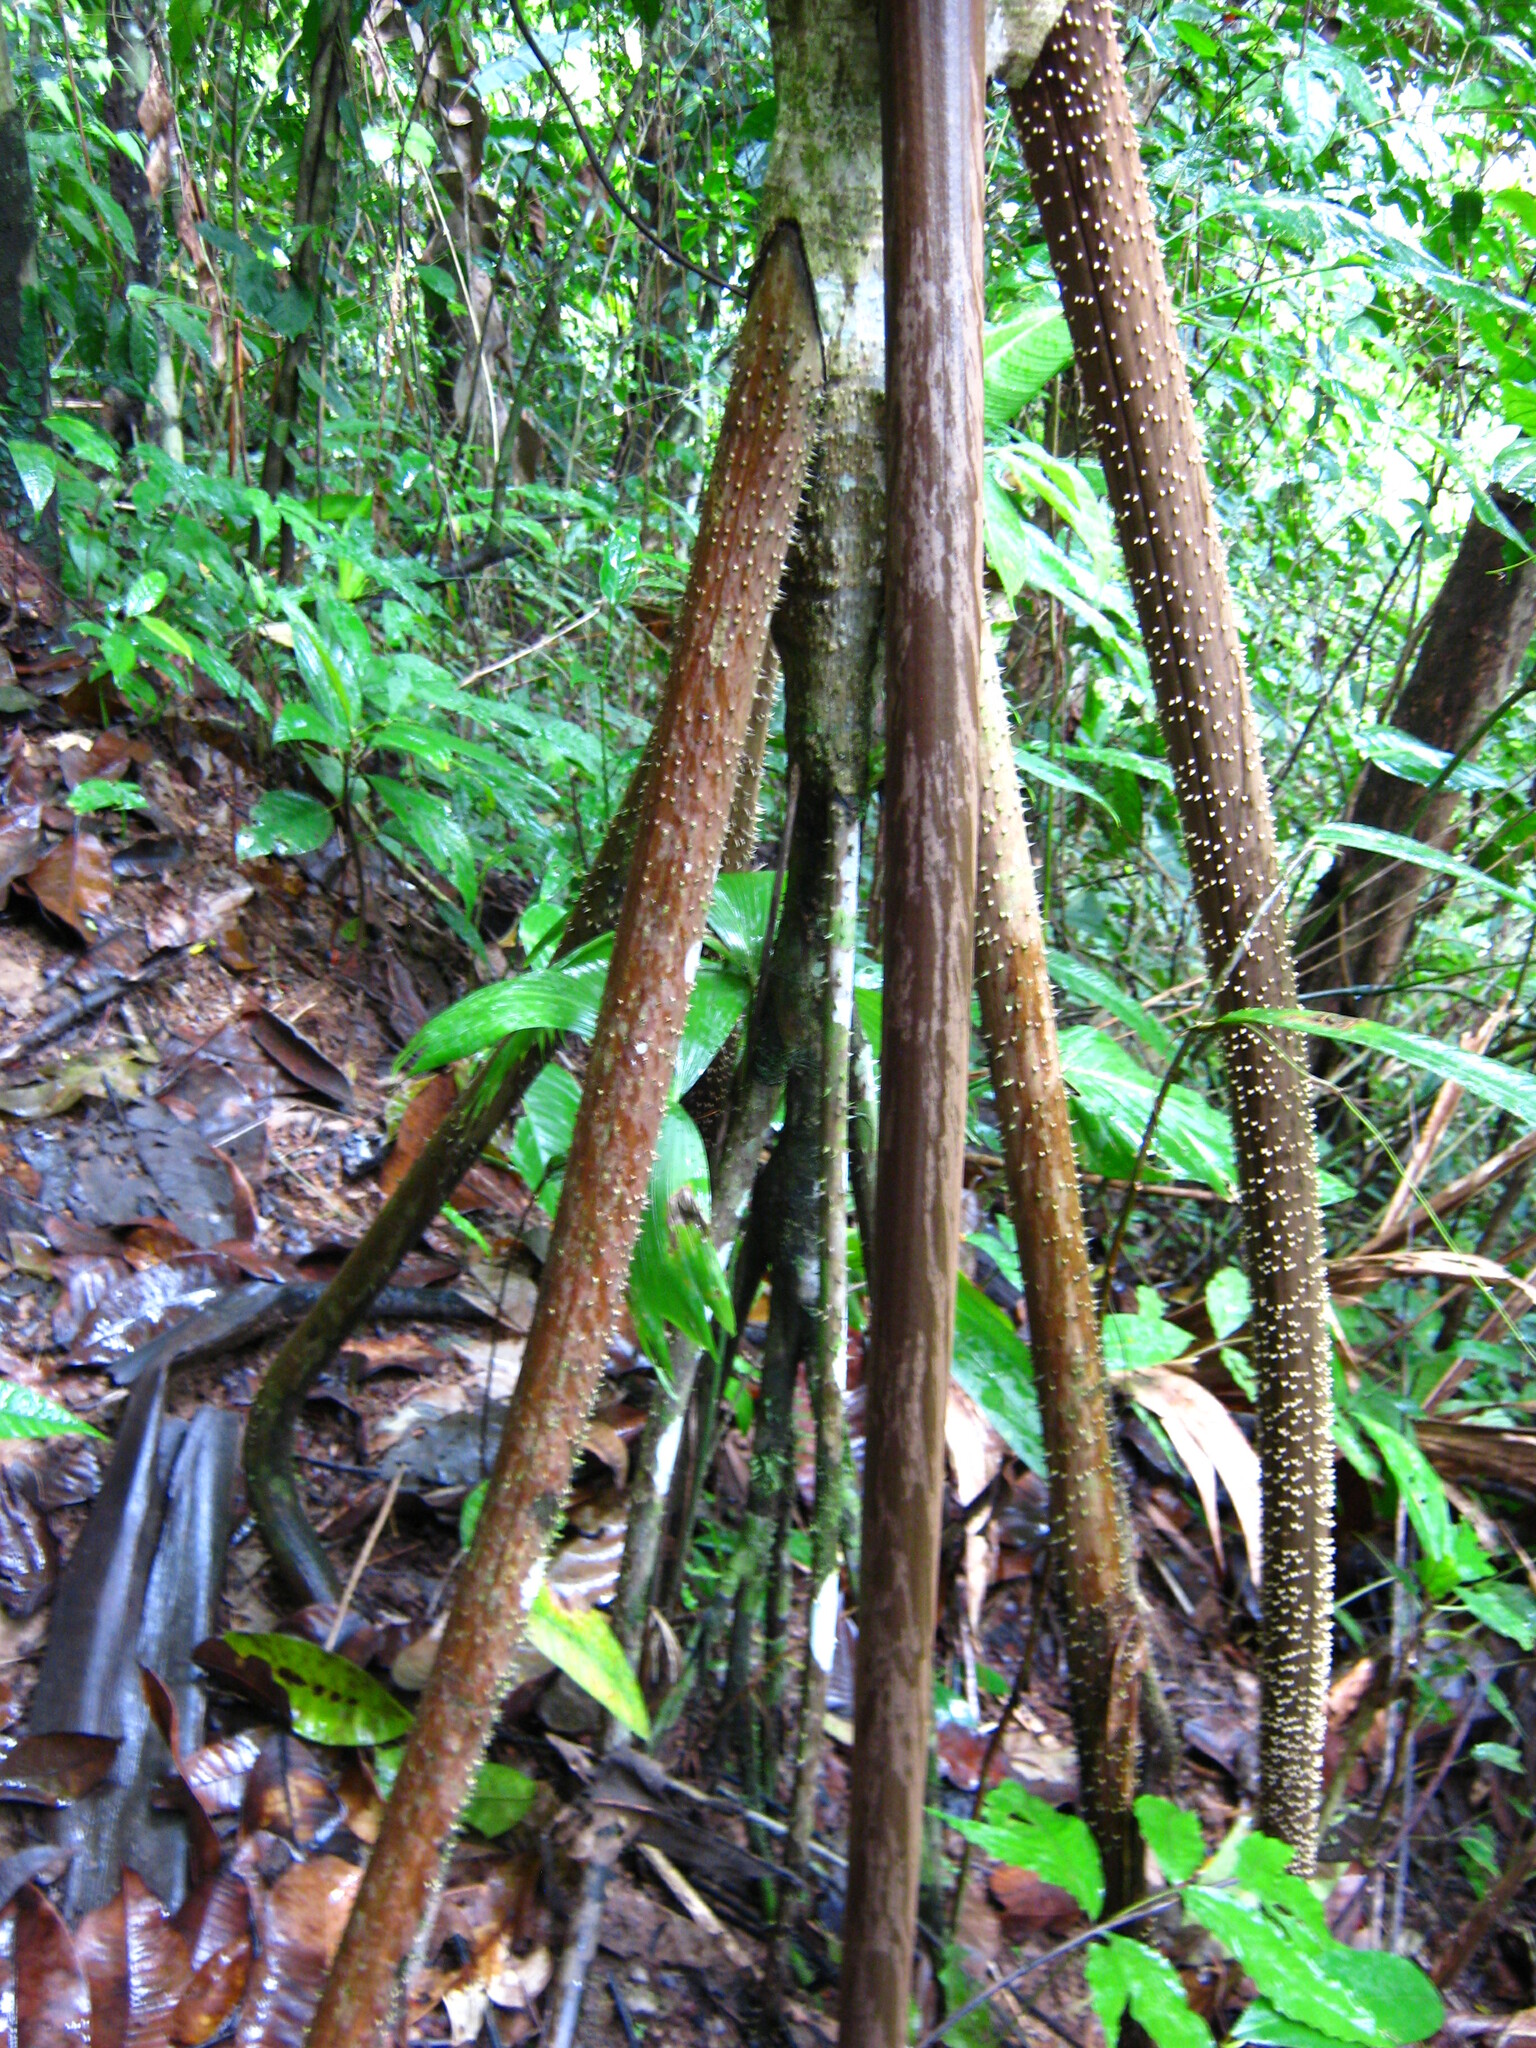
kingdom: Plantae
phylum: Tracheophyta
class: Liliopsida
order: Arecales
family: Arecaceae
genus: Socratea
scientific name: Socratea exorrhiza
